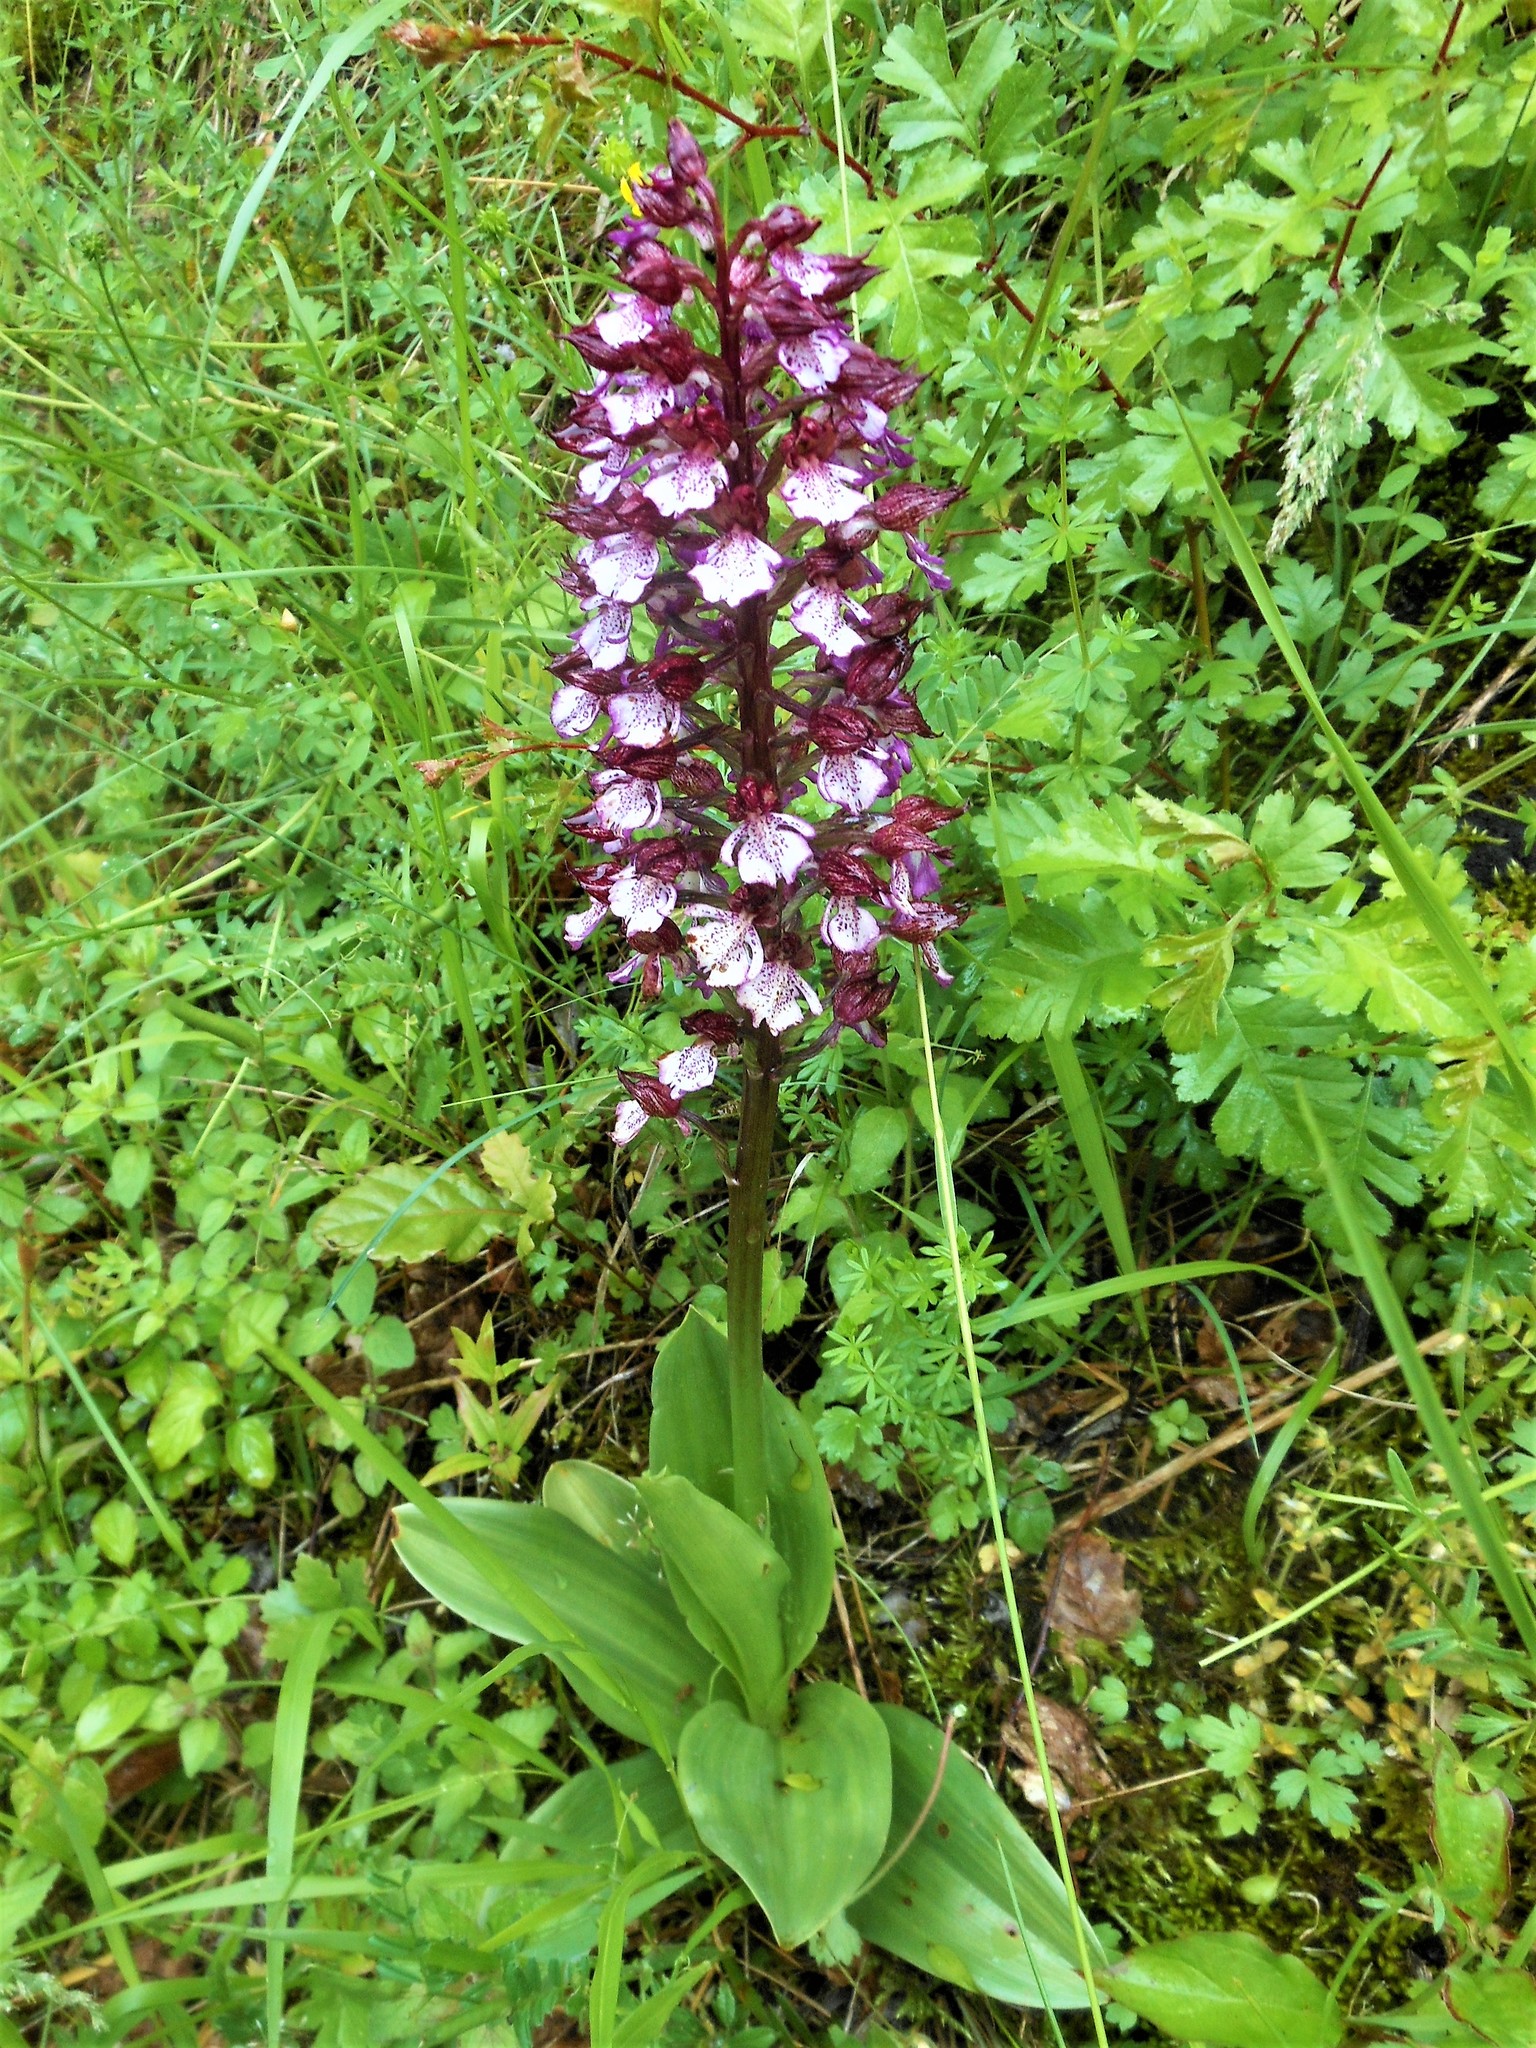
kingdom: Plantae
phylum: Tracheophyta
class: Liliopsida
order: Asparagales
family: Orchidaceae
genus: Orchis
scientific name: Orchis purpurea
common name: Lady orchid
